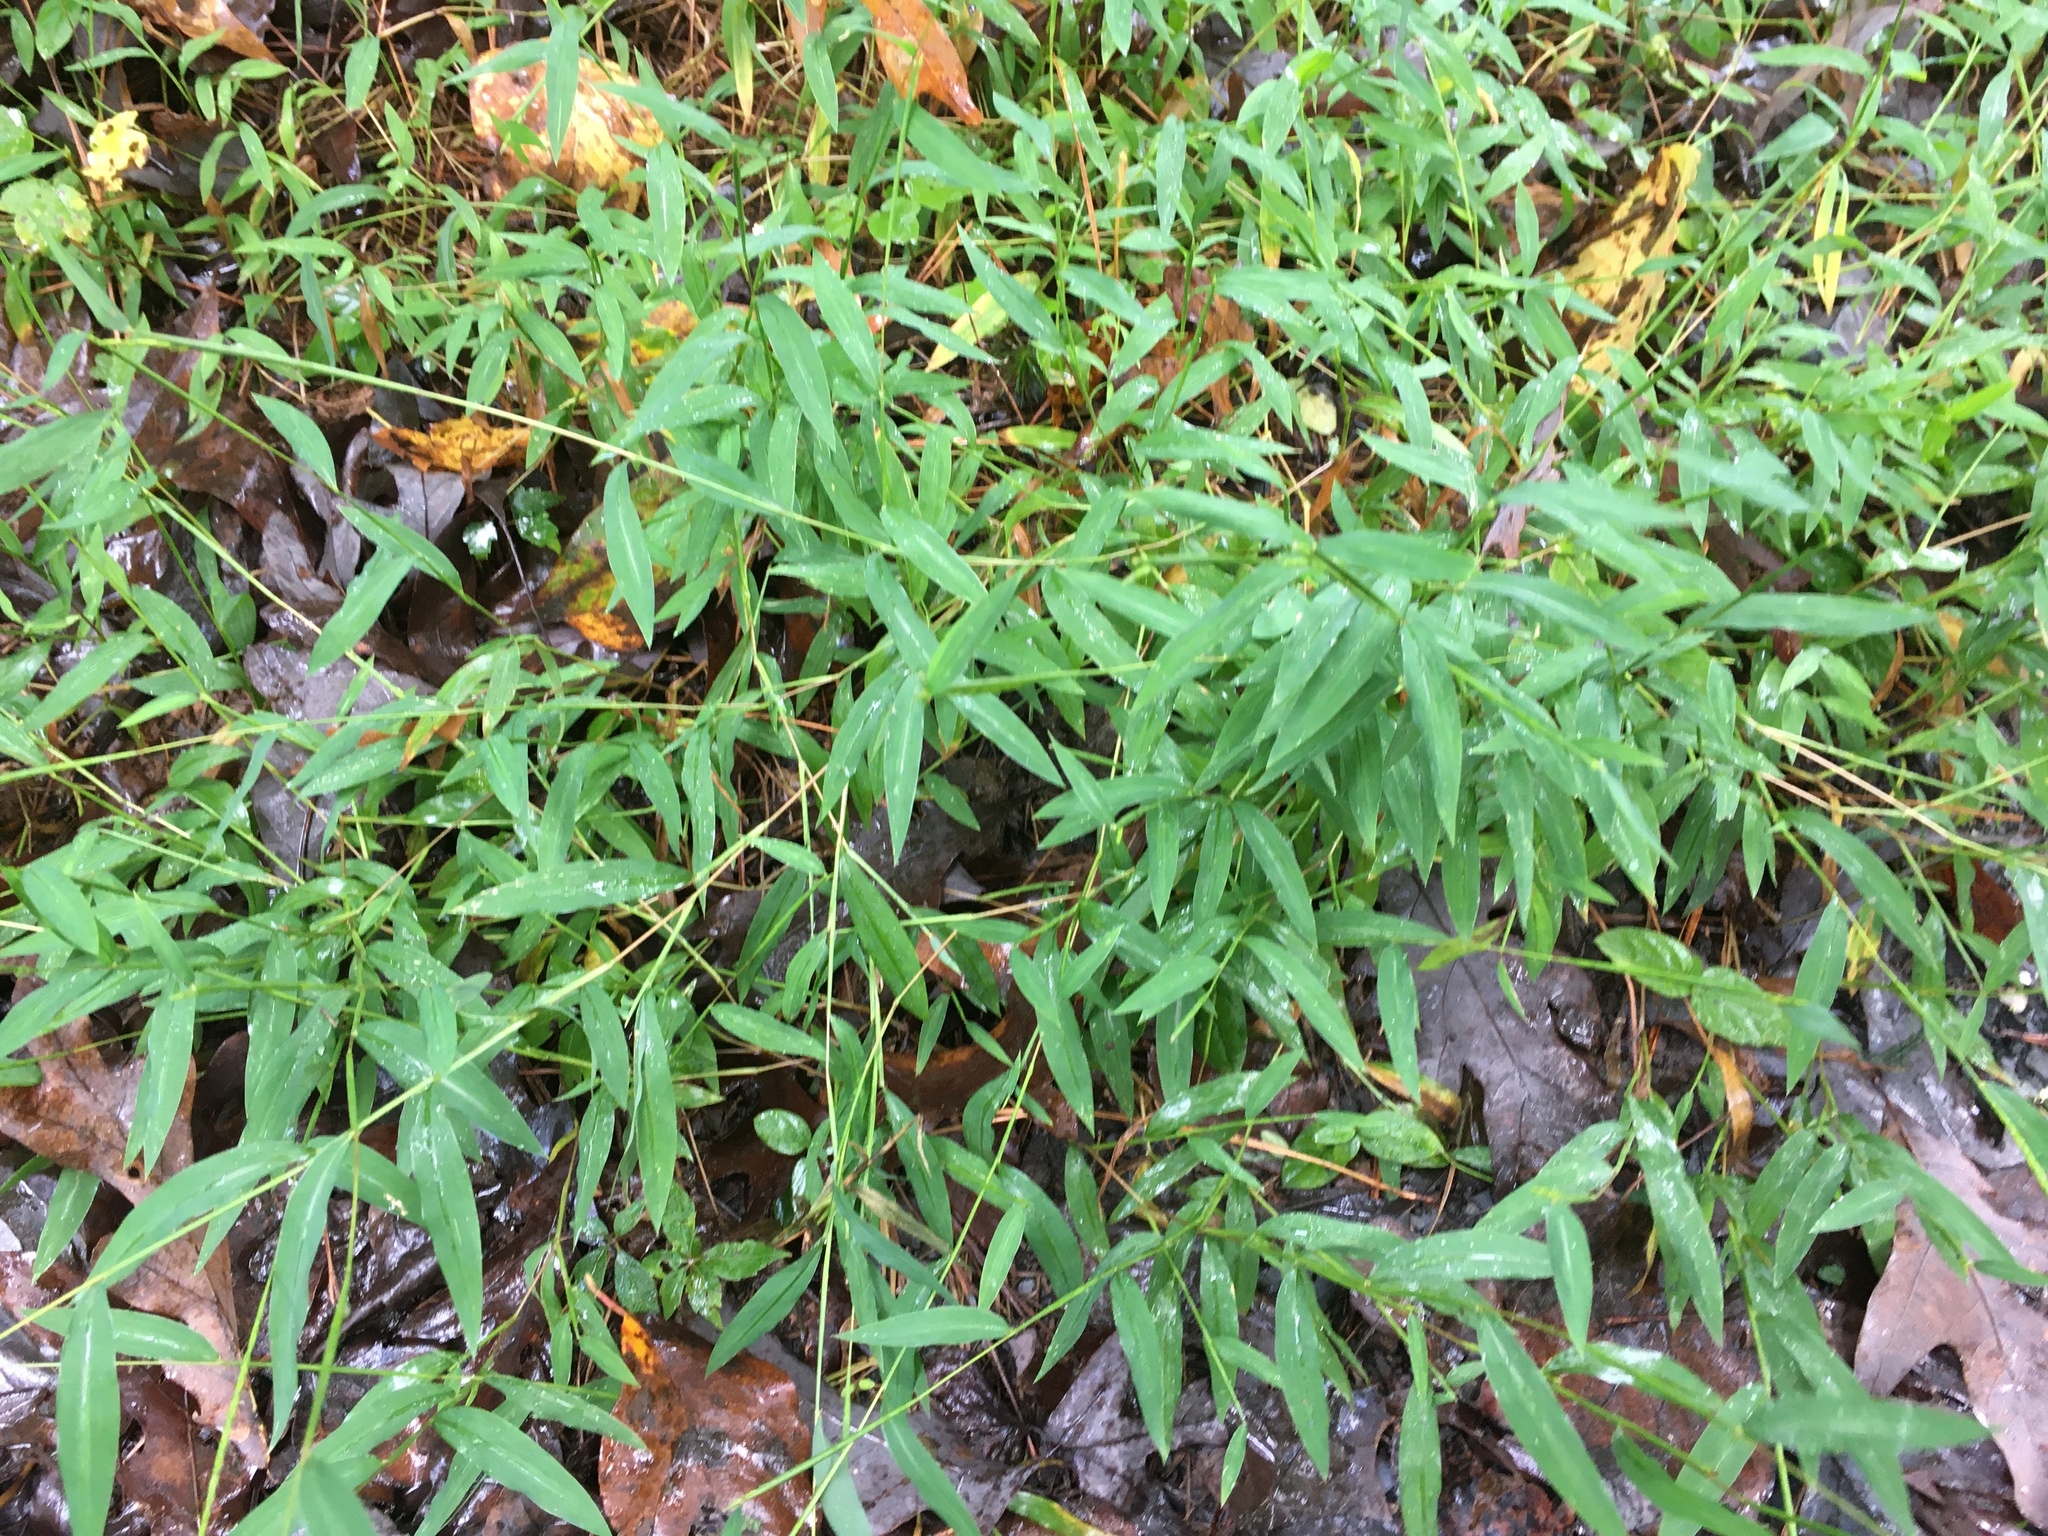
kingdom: Plantae
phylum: Tracheophyta
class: Liliopsida
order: Poales
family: Poaceae
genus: Microstegium
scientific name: Microstegium vimineum
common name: Japanese stiltgrass
